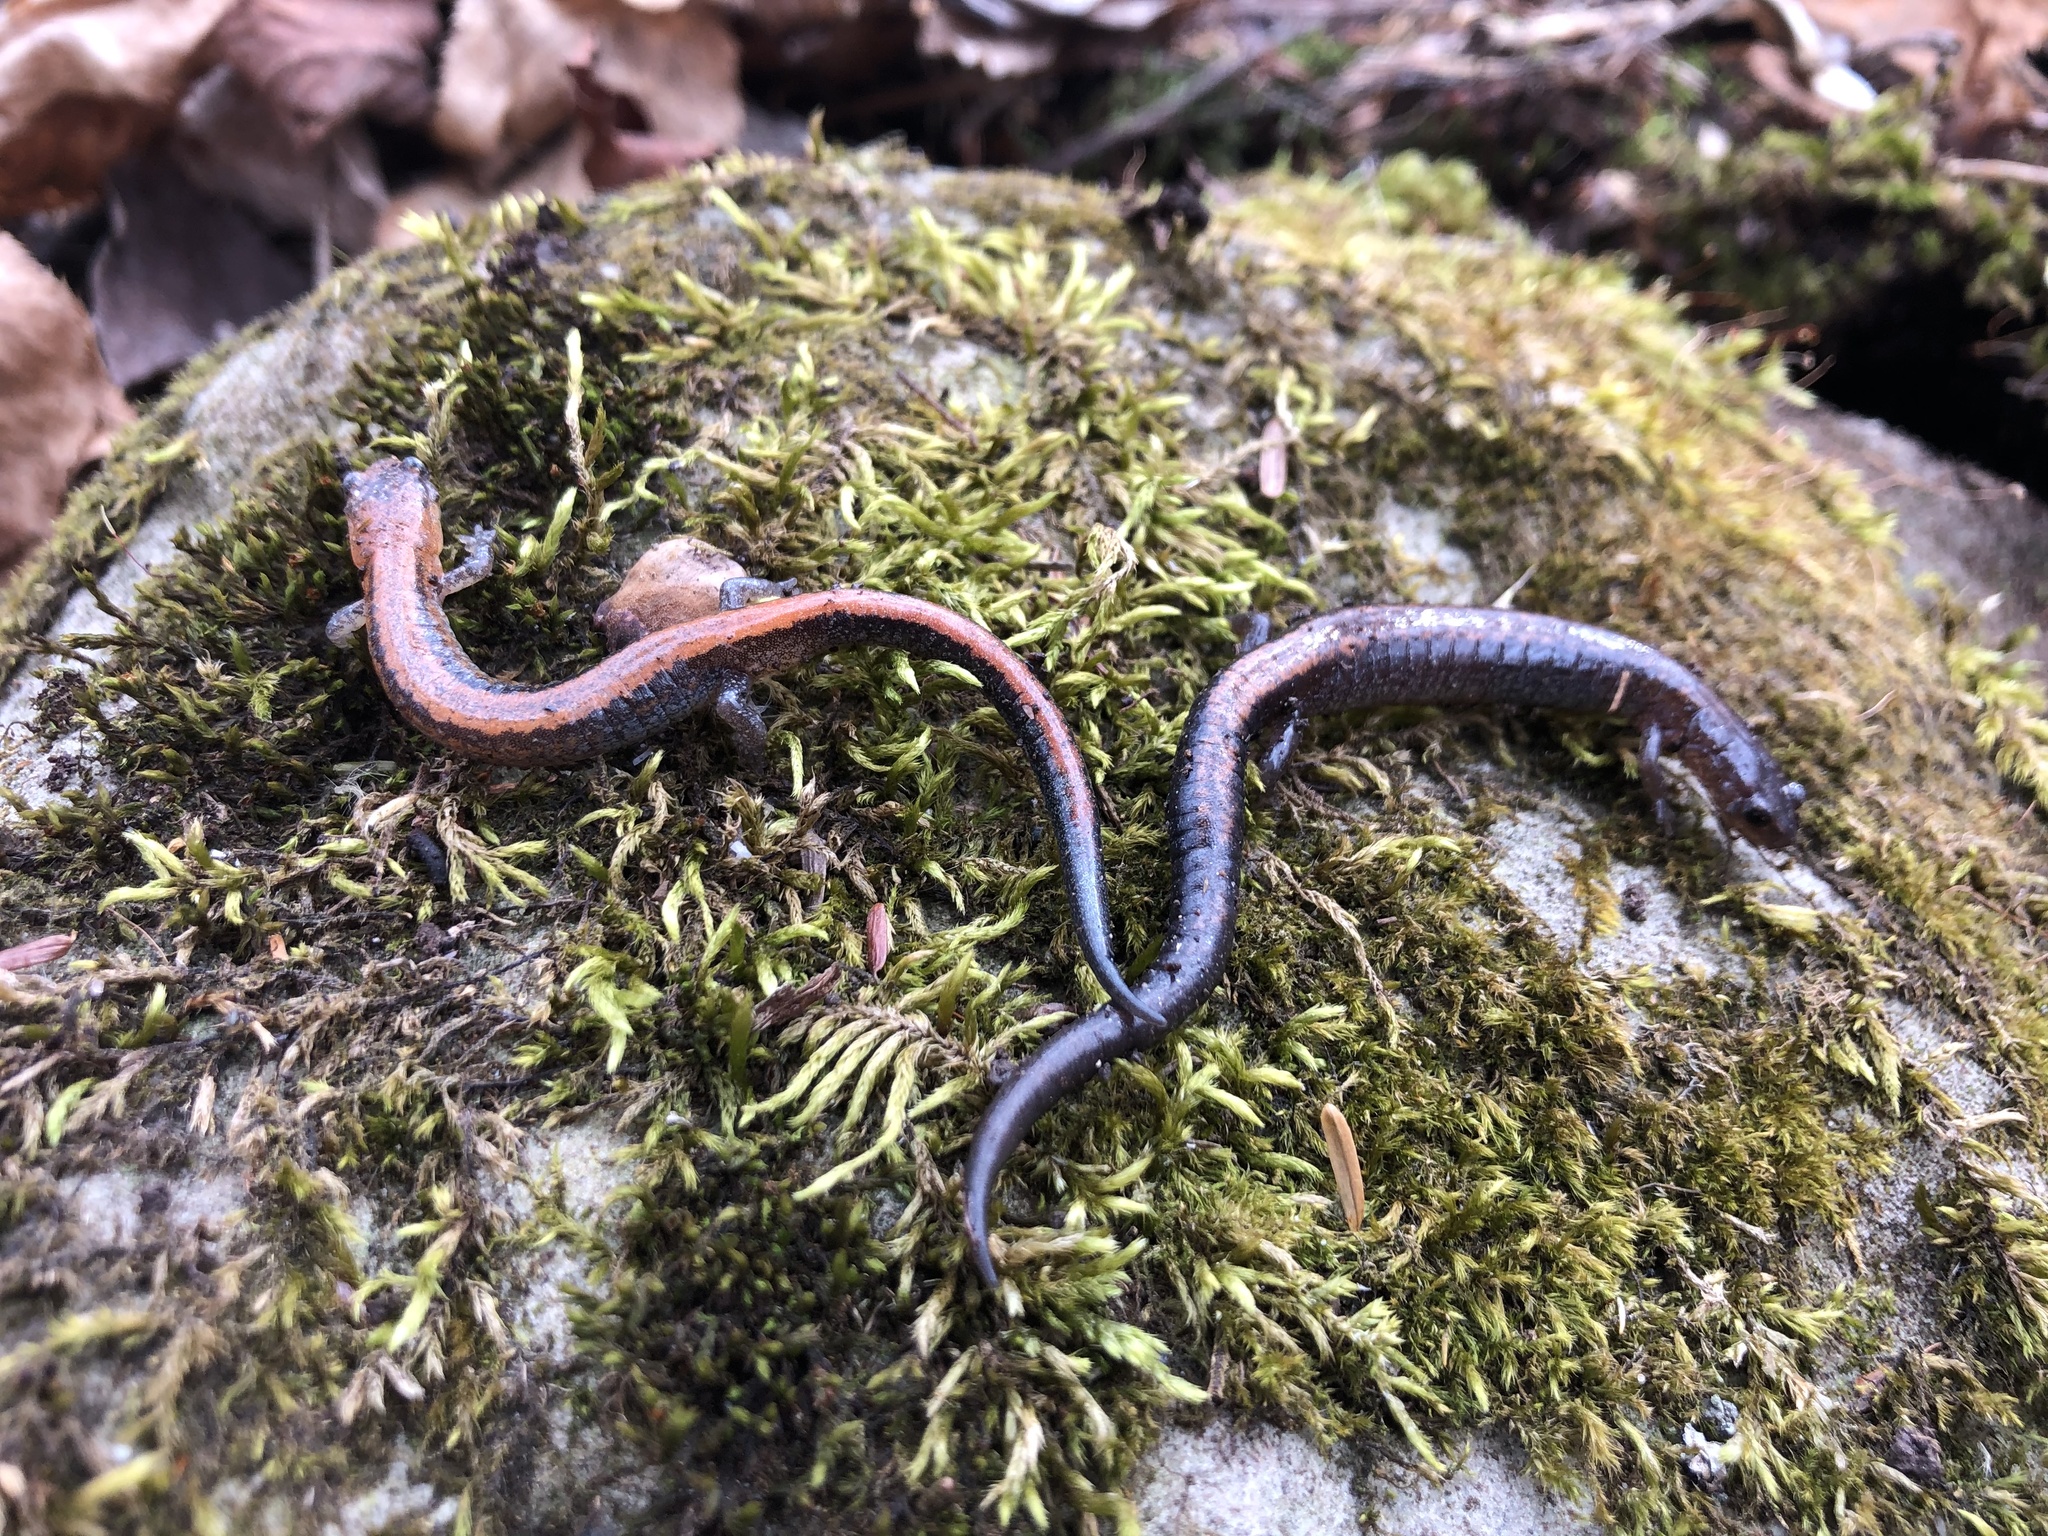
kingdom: Animalia
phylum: Chordata
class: Amphibia
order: Caudata
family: Plethodontidae
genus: Plethodon
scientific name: Plethodon cinereus
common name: Redback salamander
